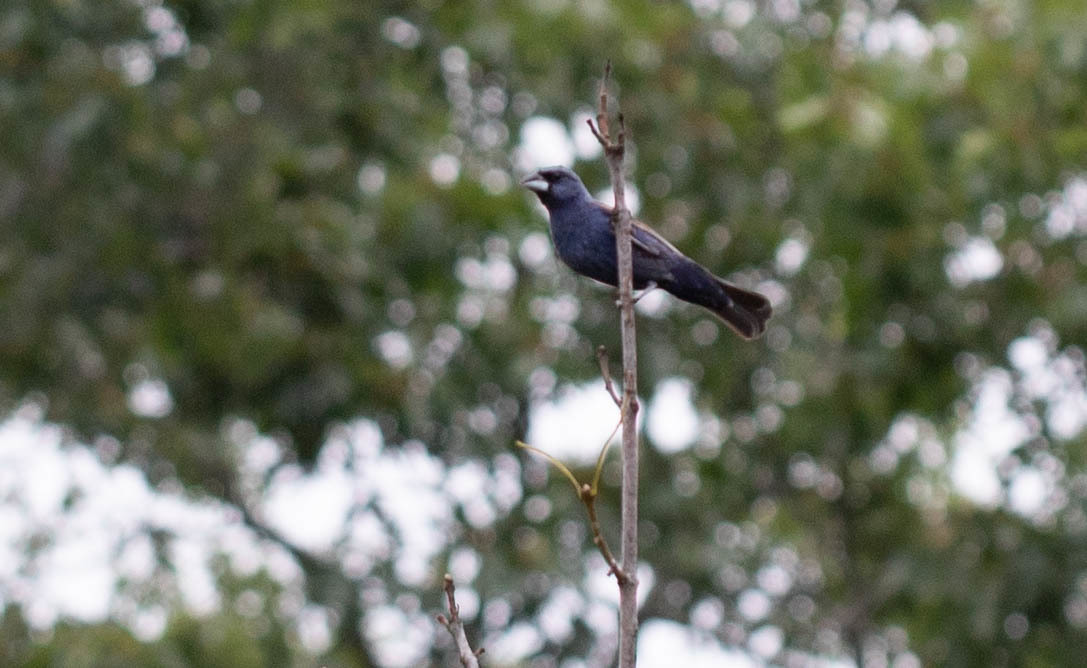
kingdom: Animalia
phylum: Chordata
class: Aves
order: Passeriformes
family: Cardinalidae
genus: Passerina
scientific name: Passerina caerulea
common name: Blue grosbeak
